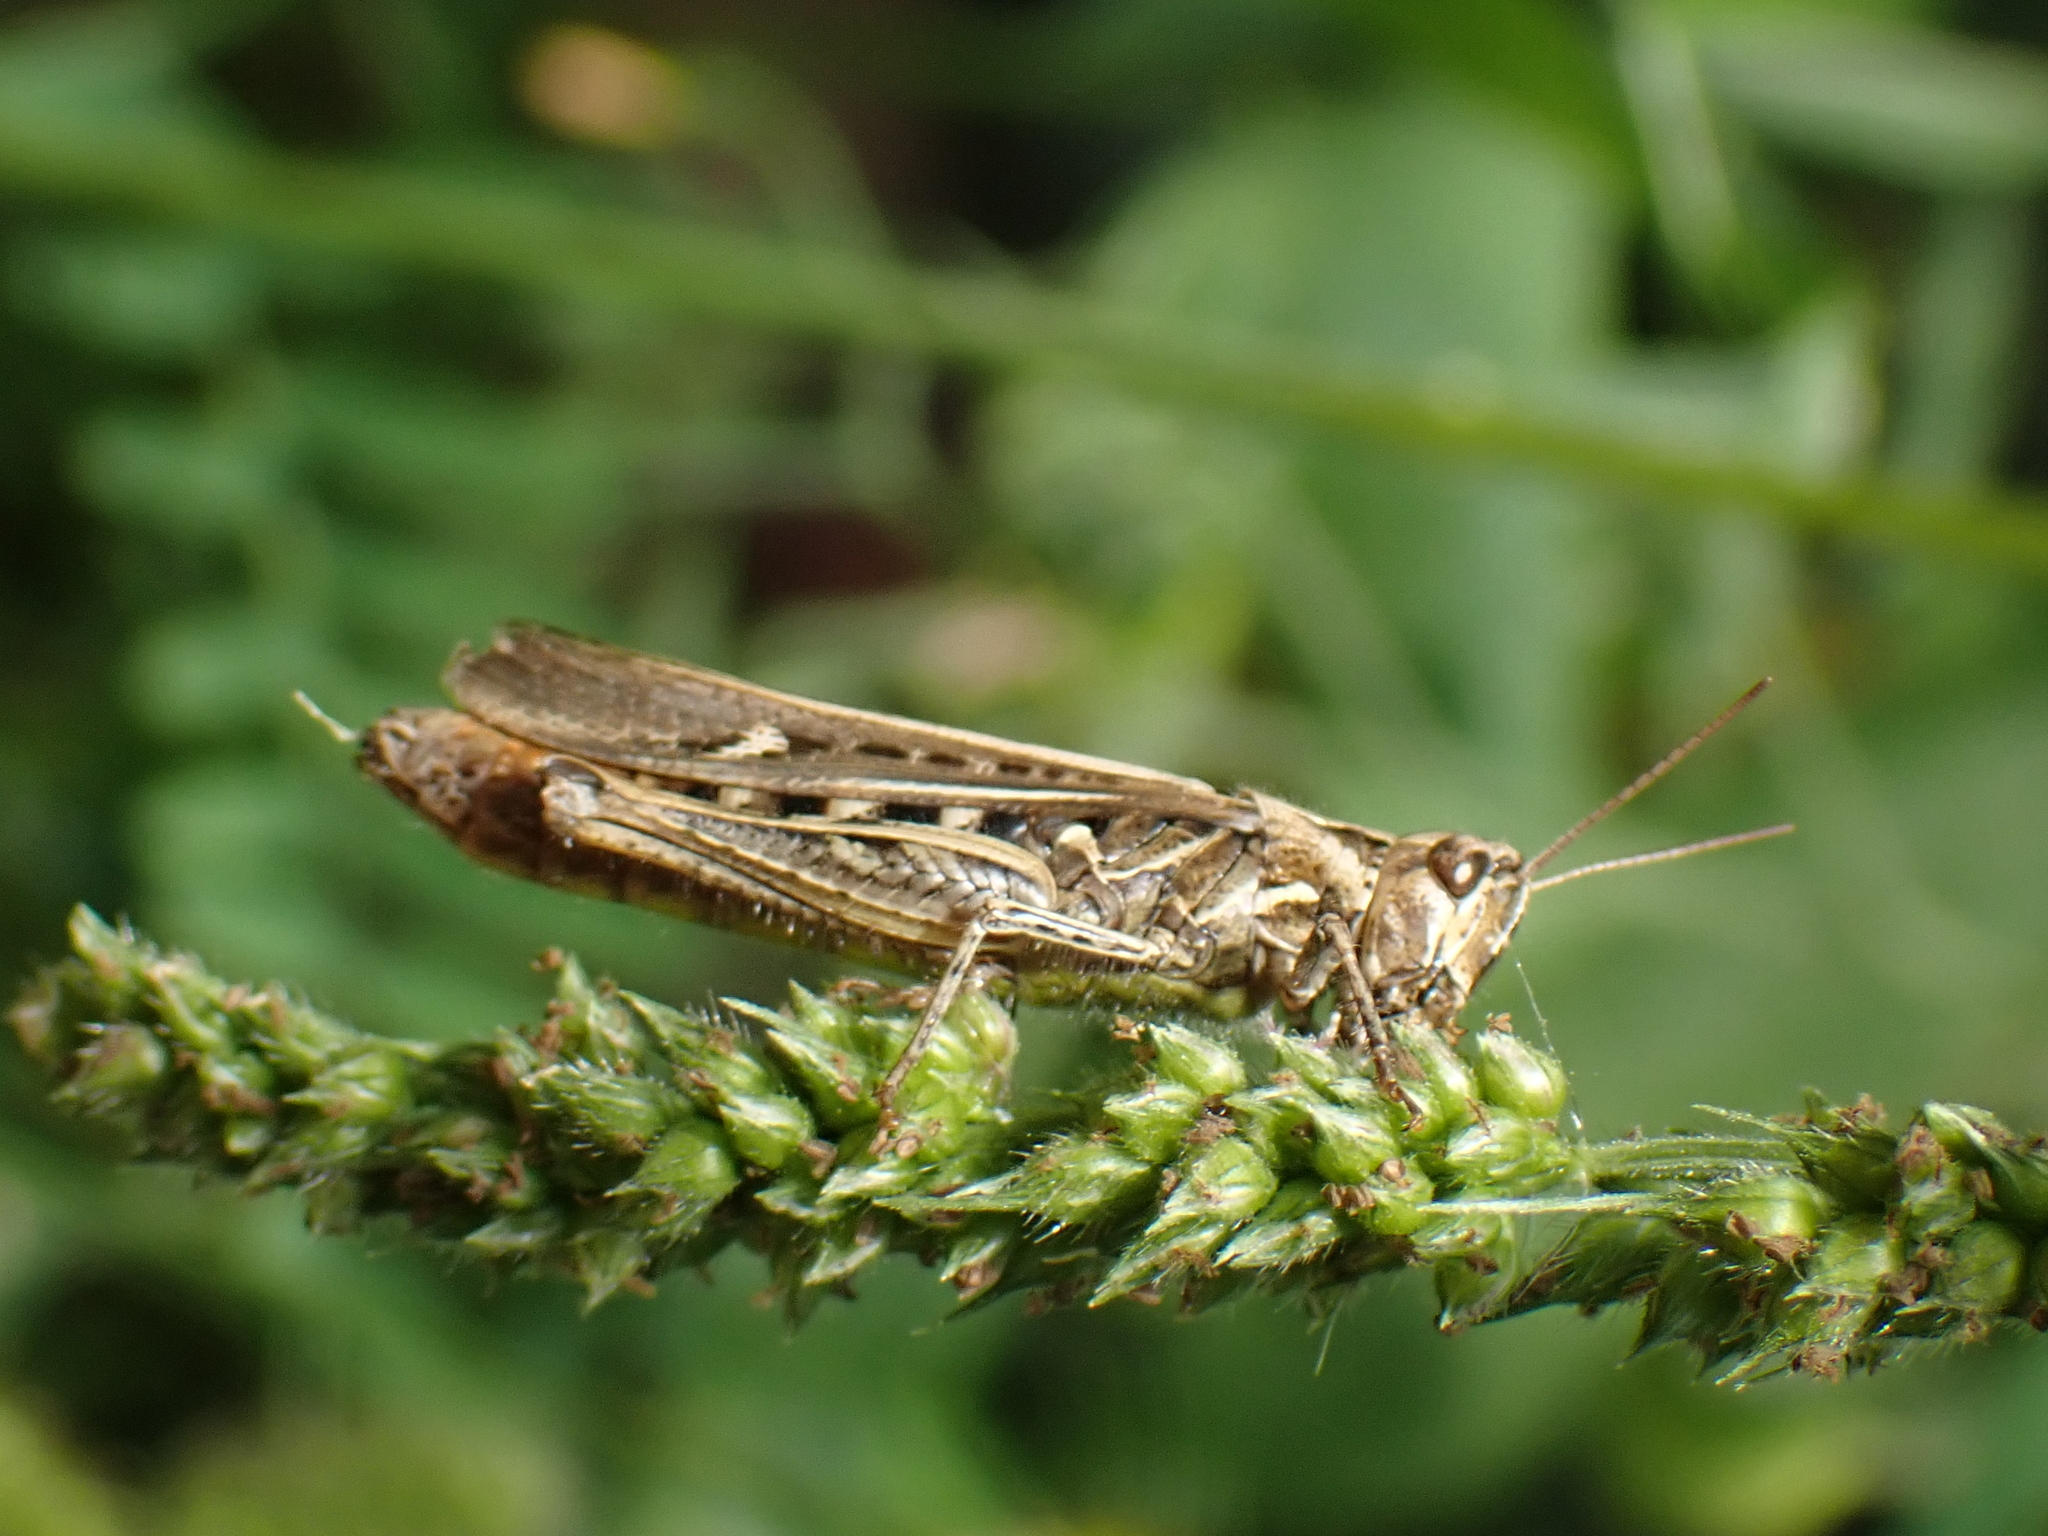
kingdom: Animalia
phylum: Arthropoda
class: Insecta
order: Orthoptera
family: Acrididae
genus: Chorthippus
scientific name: Chorthippus brunneus
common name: Field grasshopper
